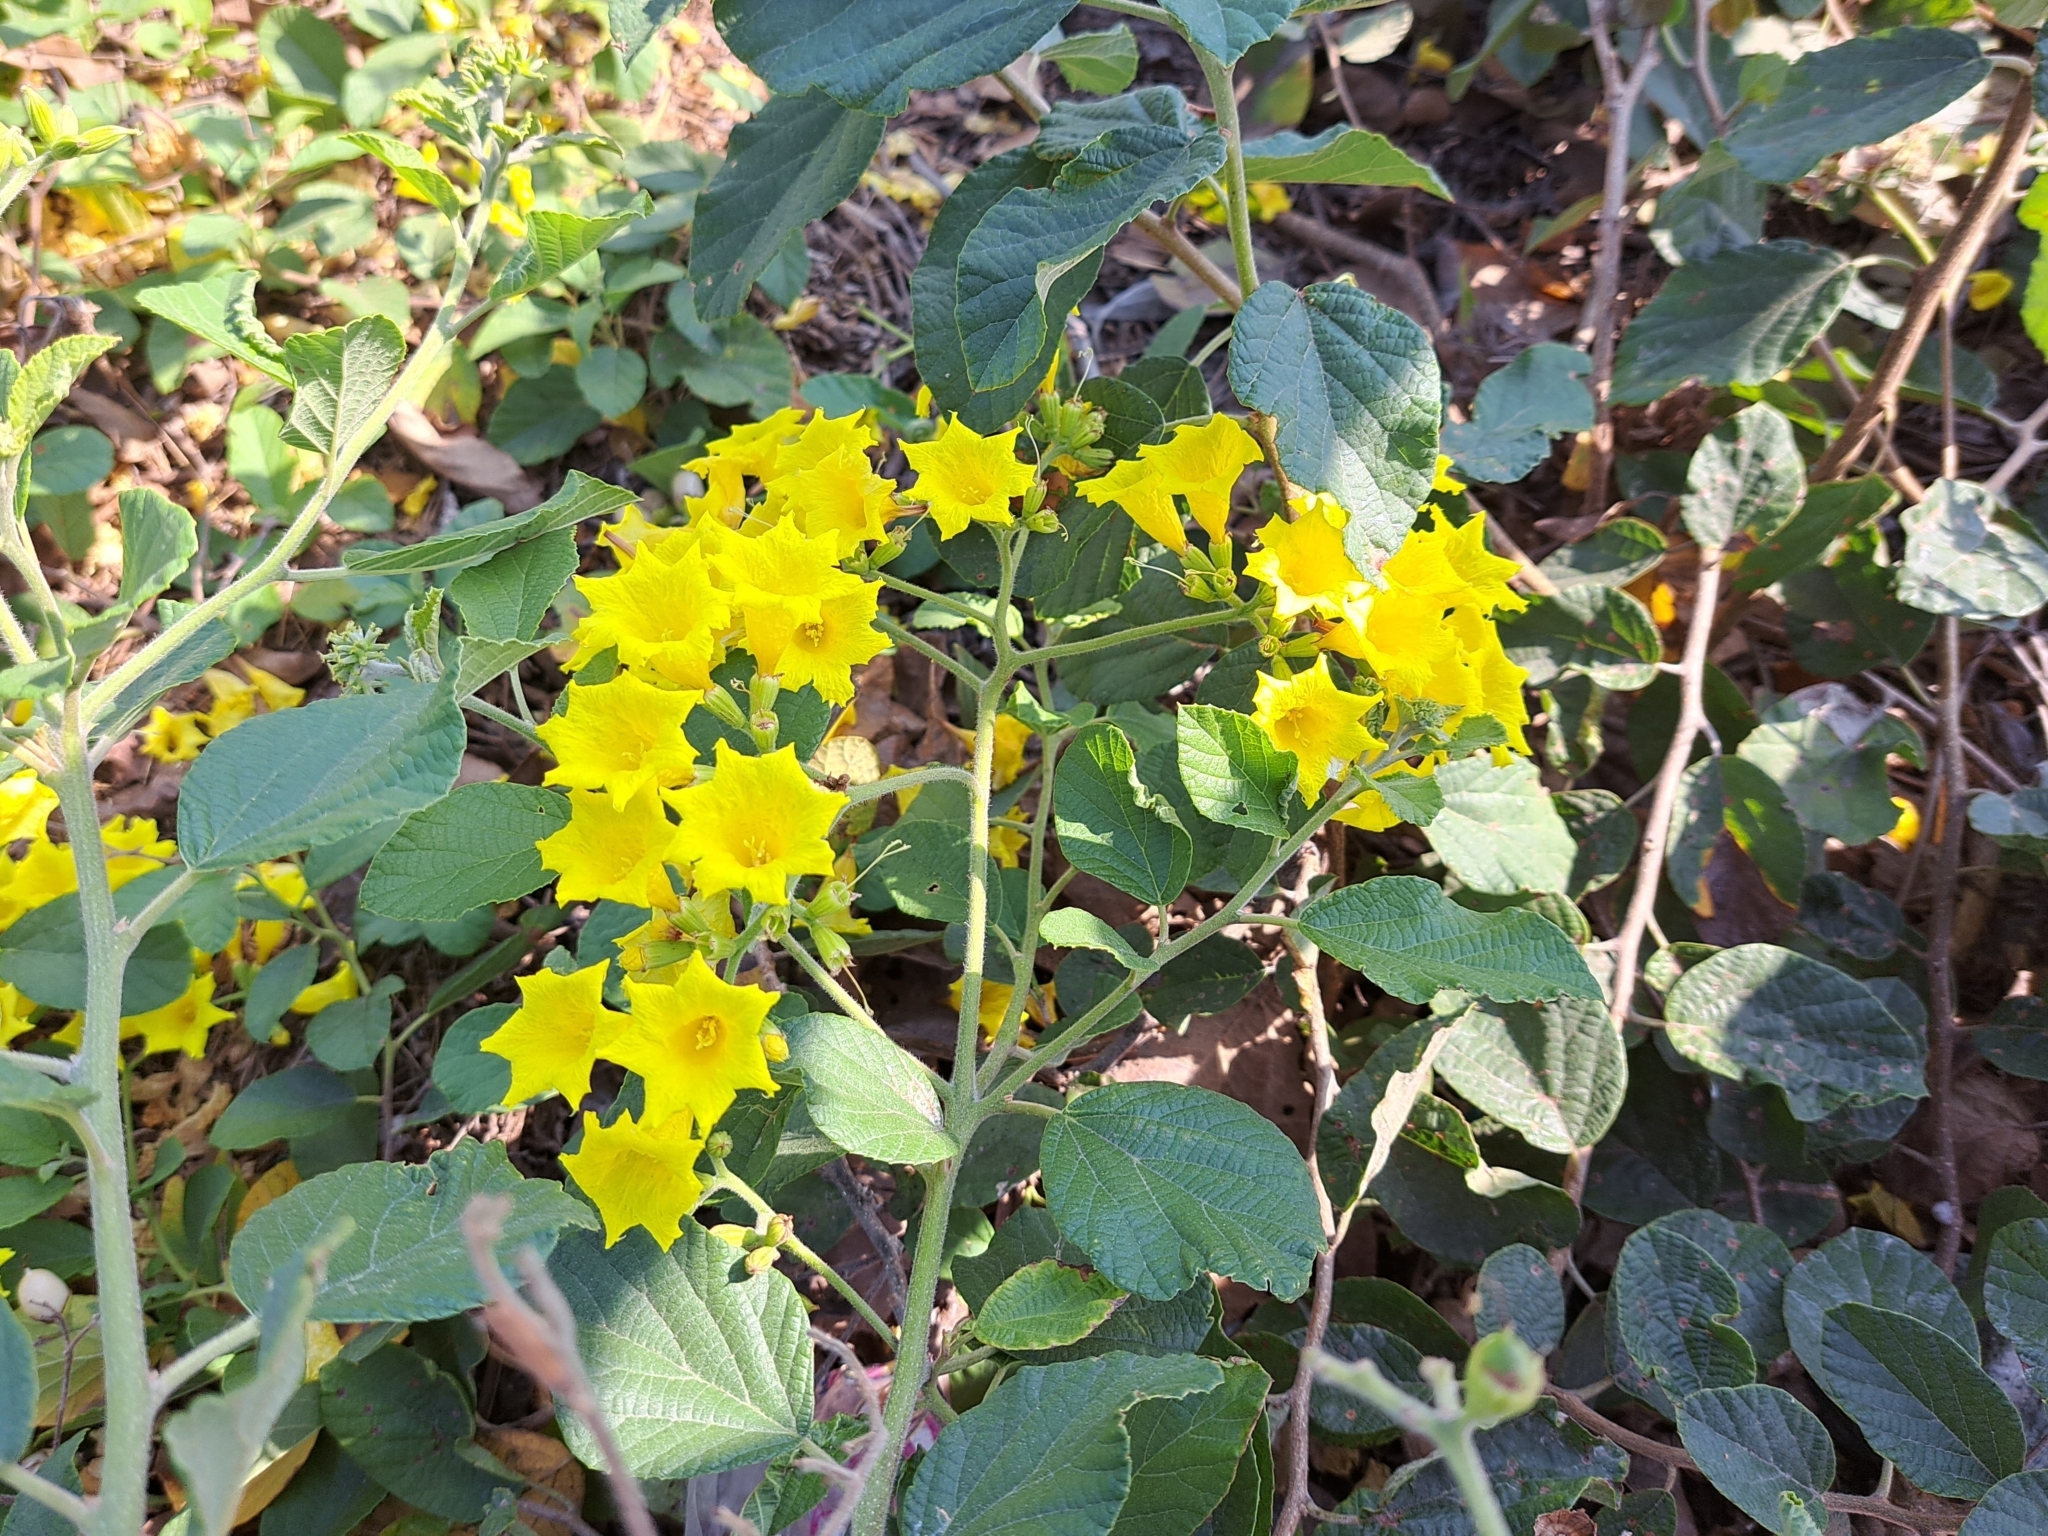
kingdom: Plantae
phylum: Tracheophyta
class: Magnoliopsida
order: Boraginales
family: Cordiaceae
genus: Cordia
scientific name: Cordia lutea
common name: Yellow geiger
